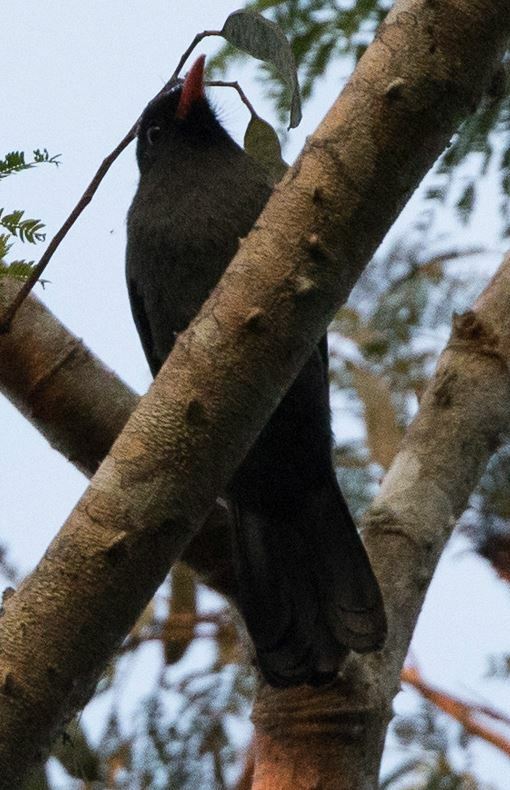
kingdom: Animalia
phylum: Chordata
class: Aves
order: Piciformes
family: Bucconidae
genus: Monasa
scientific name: Monasa nigrifrons
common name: Black-fronted nunbird
